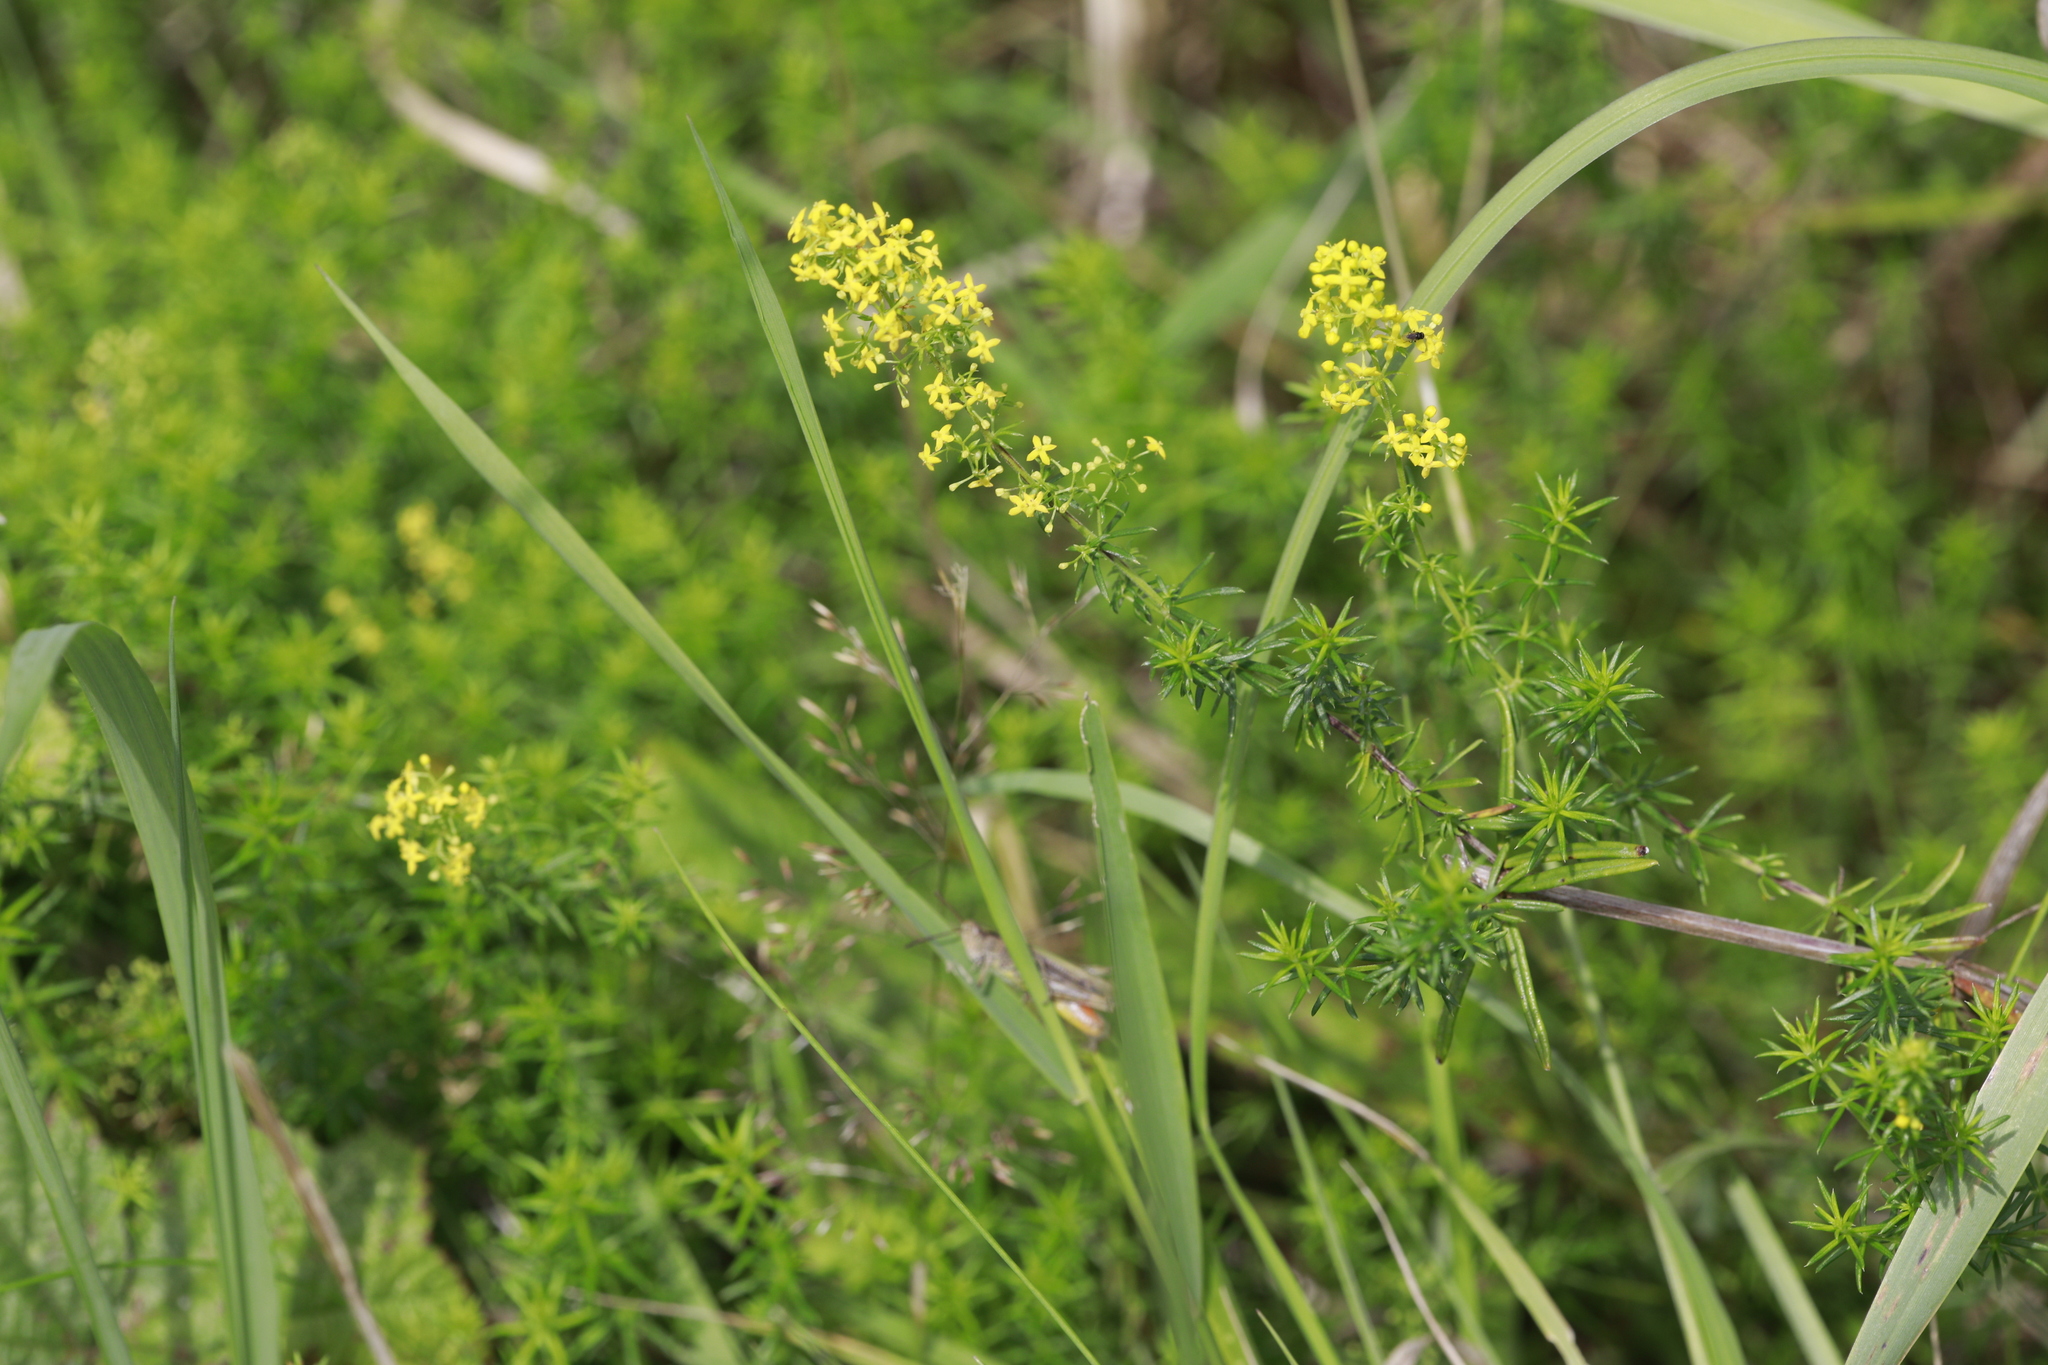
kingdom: Plantae
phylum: Tracheophyta
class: Magnoliopsida
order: Gentianales
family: Rubiaceae
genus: Galium
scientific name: Galium verum
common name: Lady's bedstraw
